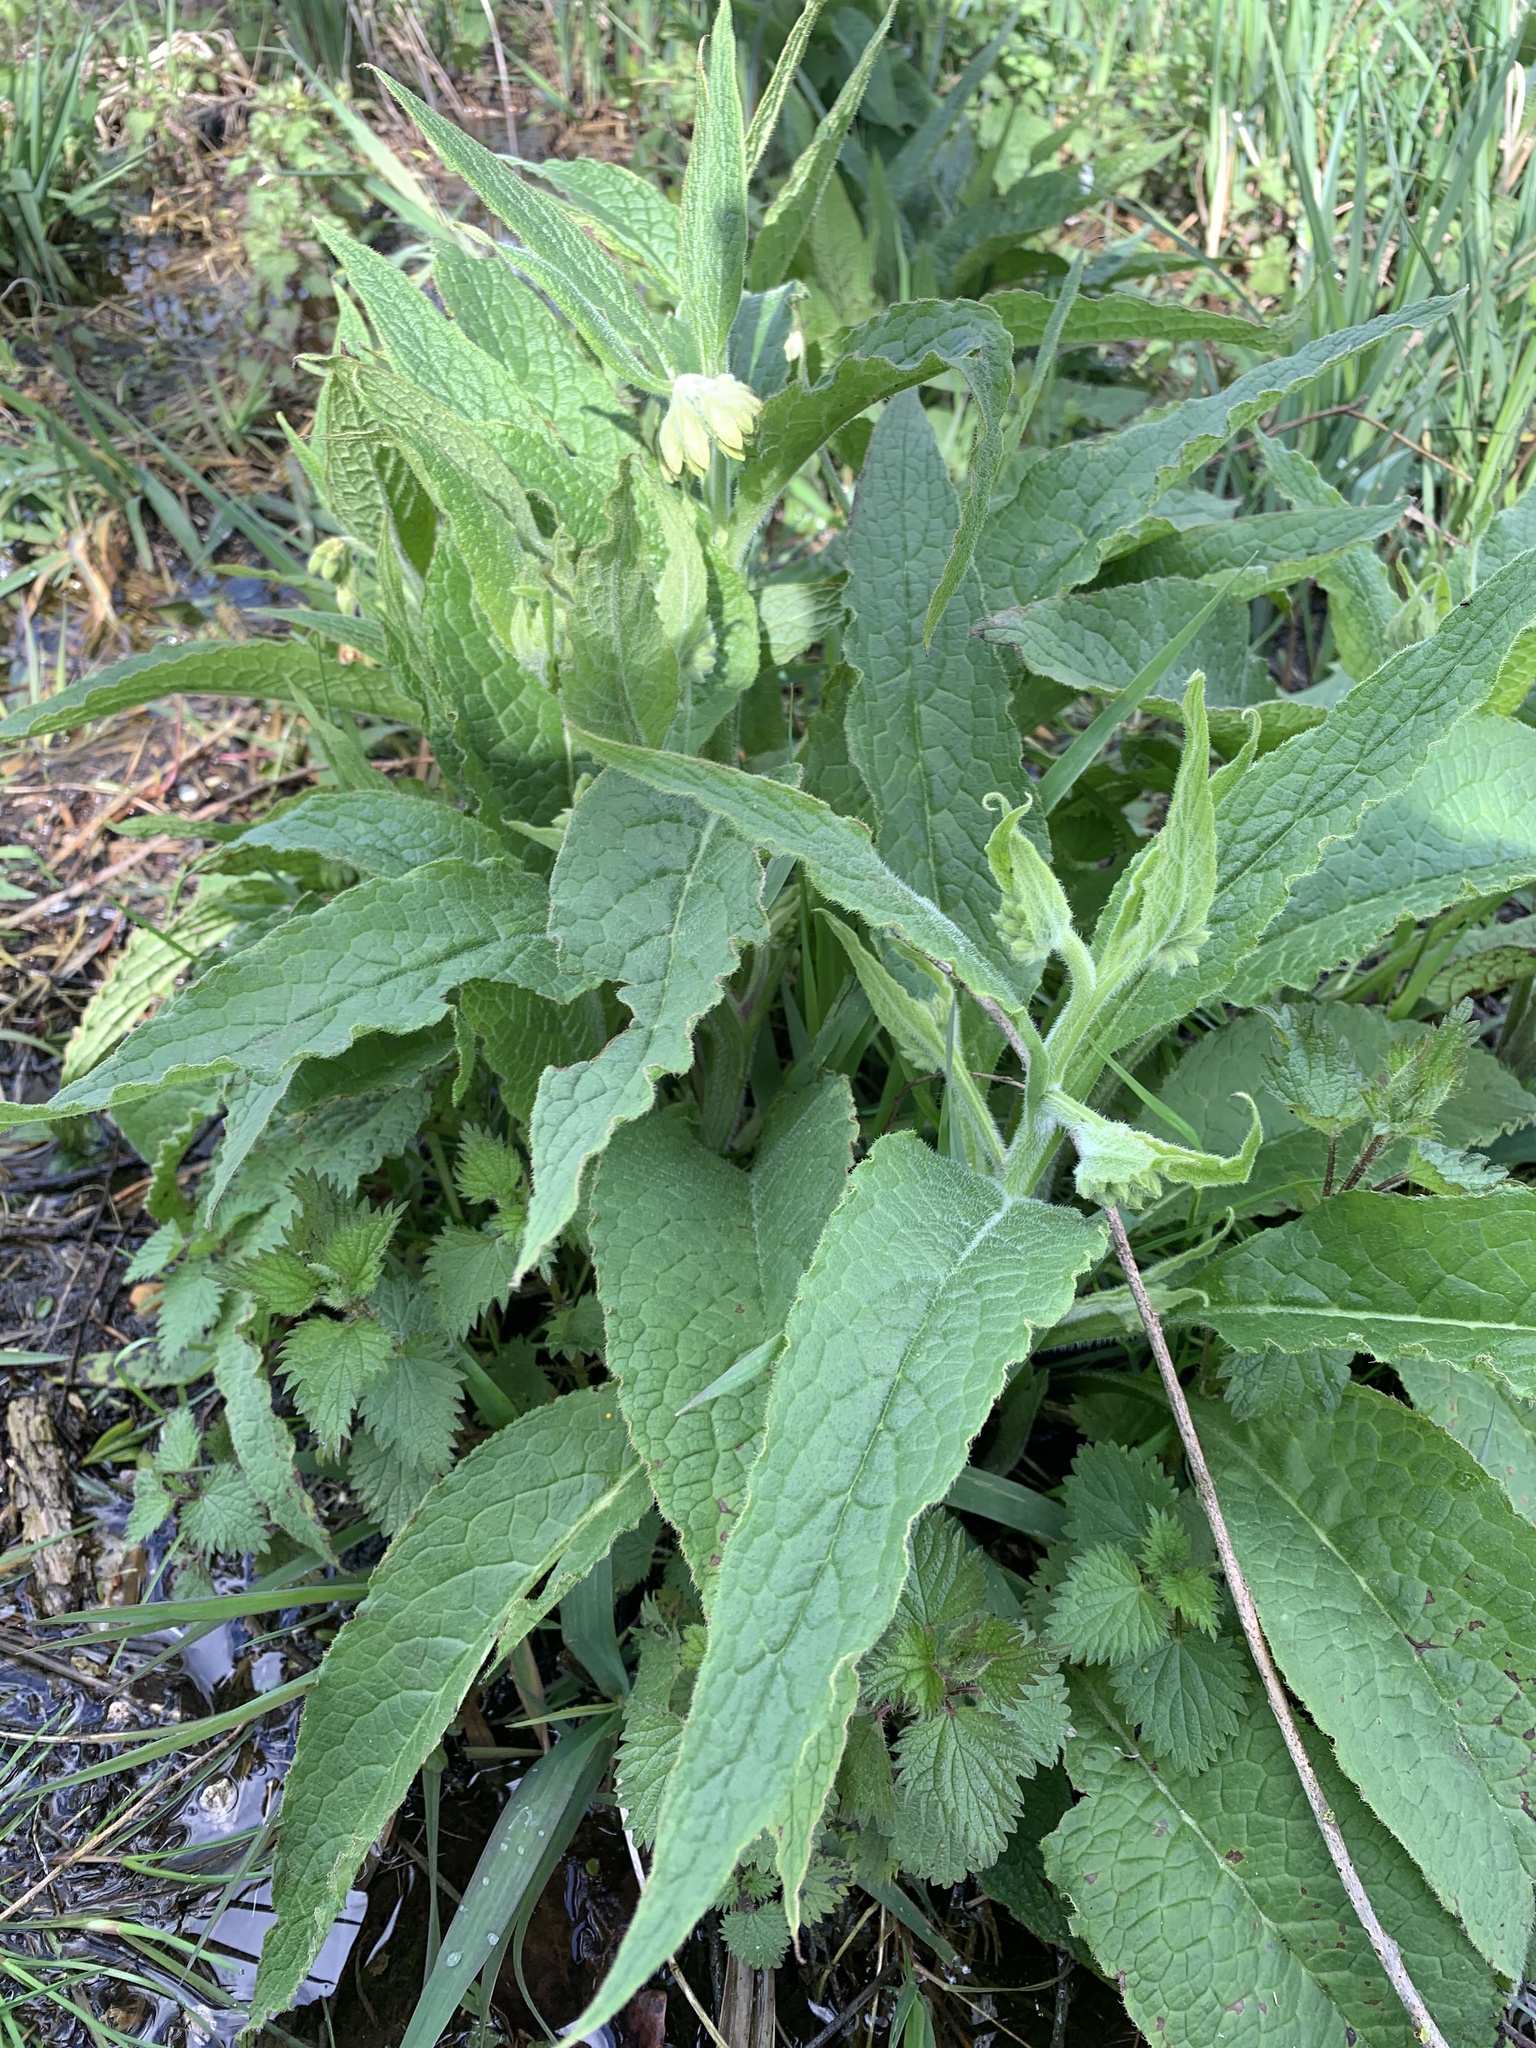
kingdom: Plantae
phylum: Tracheophyta
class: Magnoliopsida
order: Boraginales
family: Boraginaceae
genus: Symphytum
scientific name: Symphytum officinale
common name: Common comfrey
